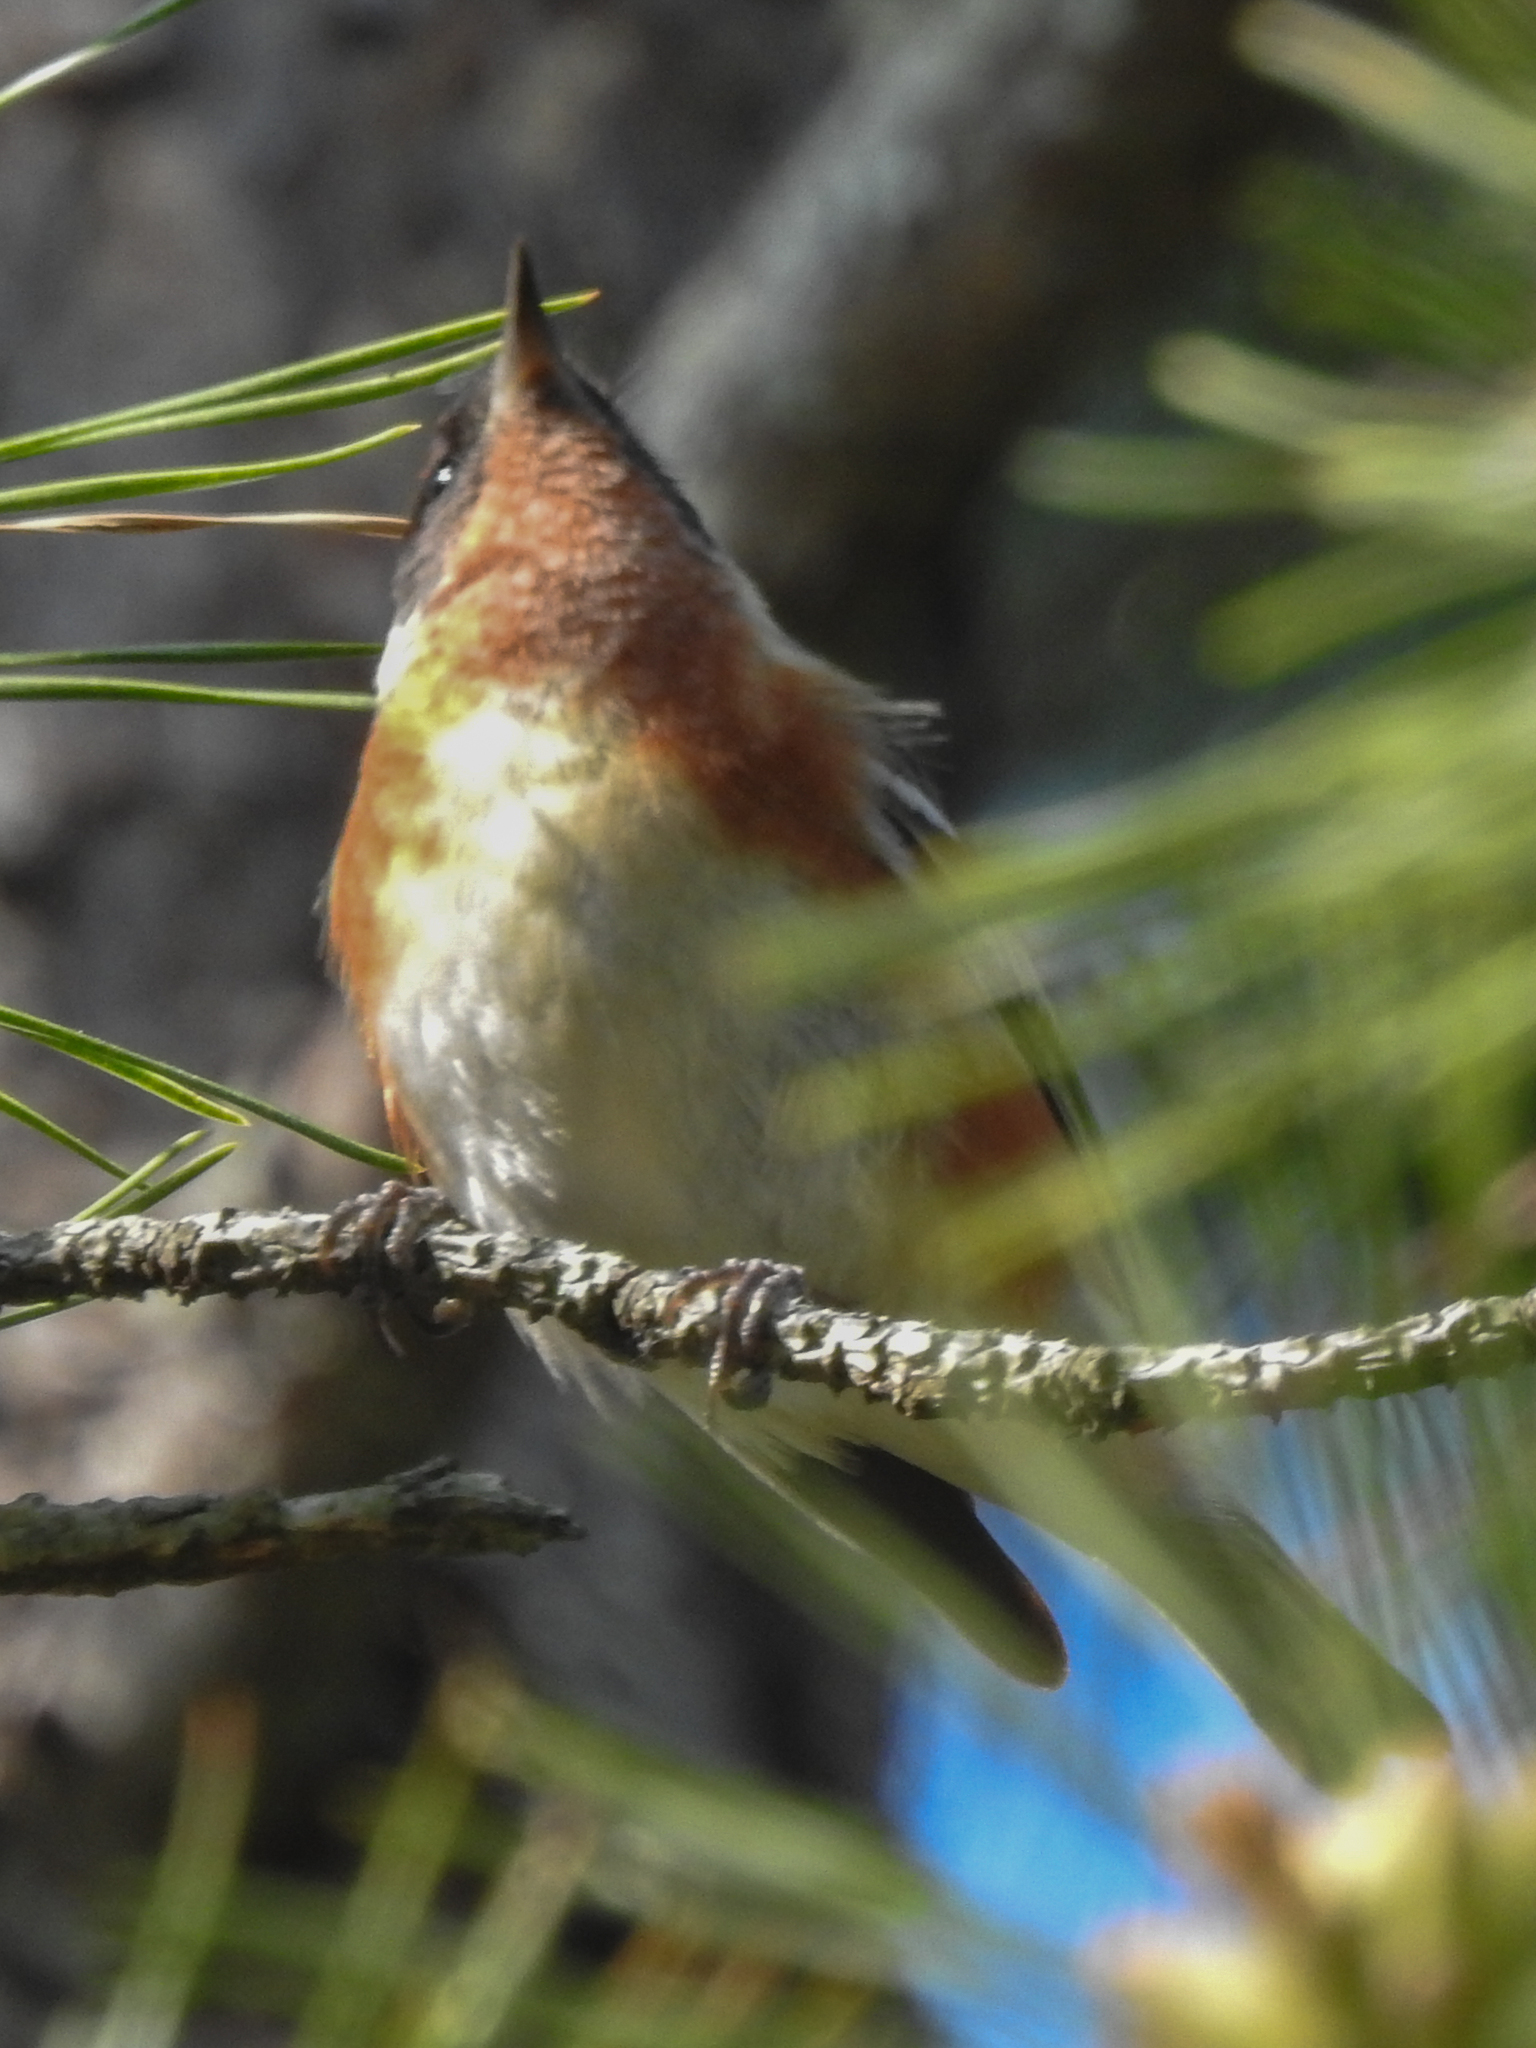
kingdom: Animalia
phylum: Chordata
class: Aves
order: Passeriformes
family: Parulidae
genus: Setophaga
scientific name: Setophaga castanea
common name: Bay-breasted warbler
